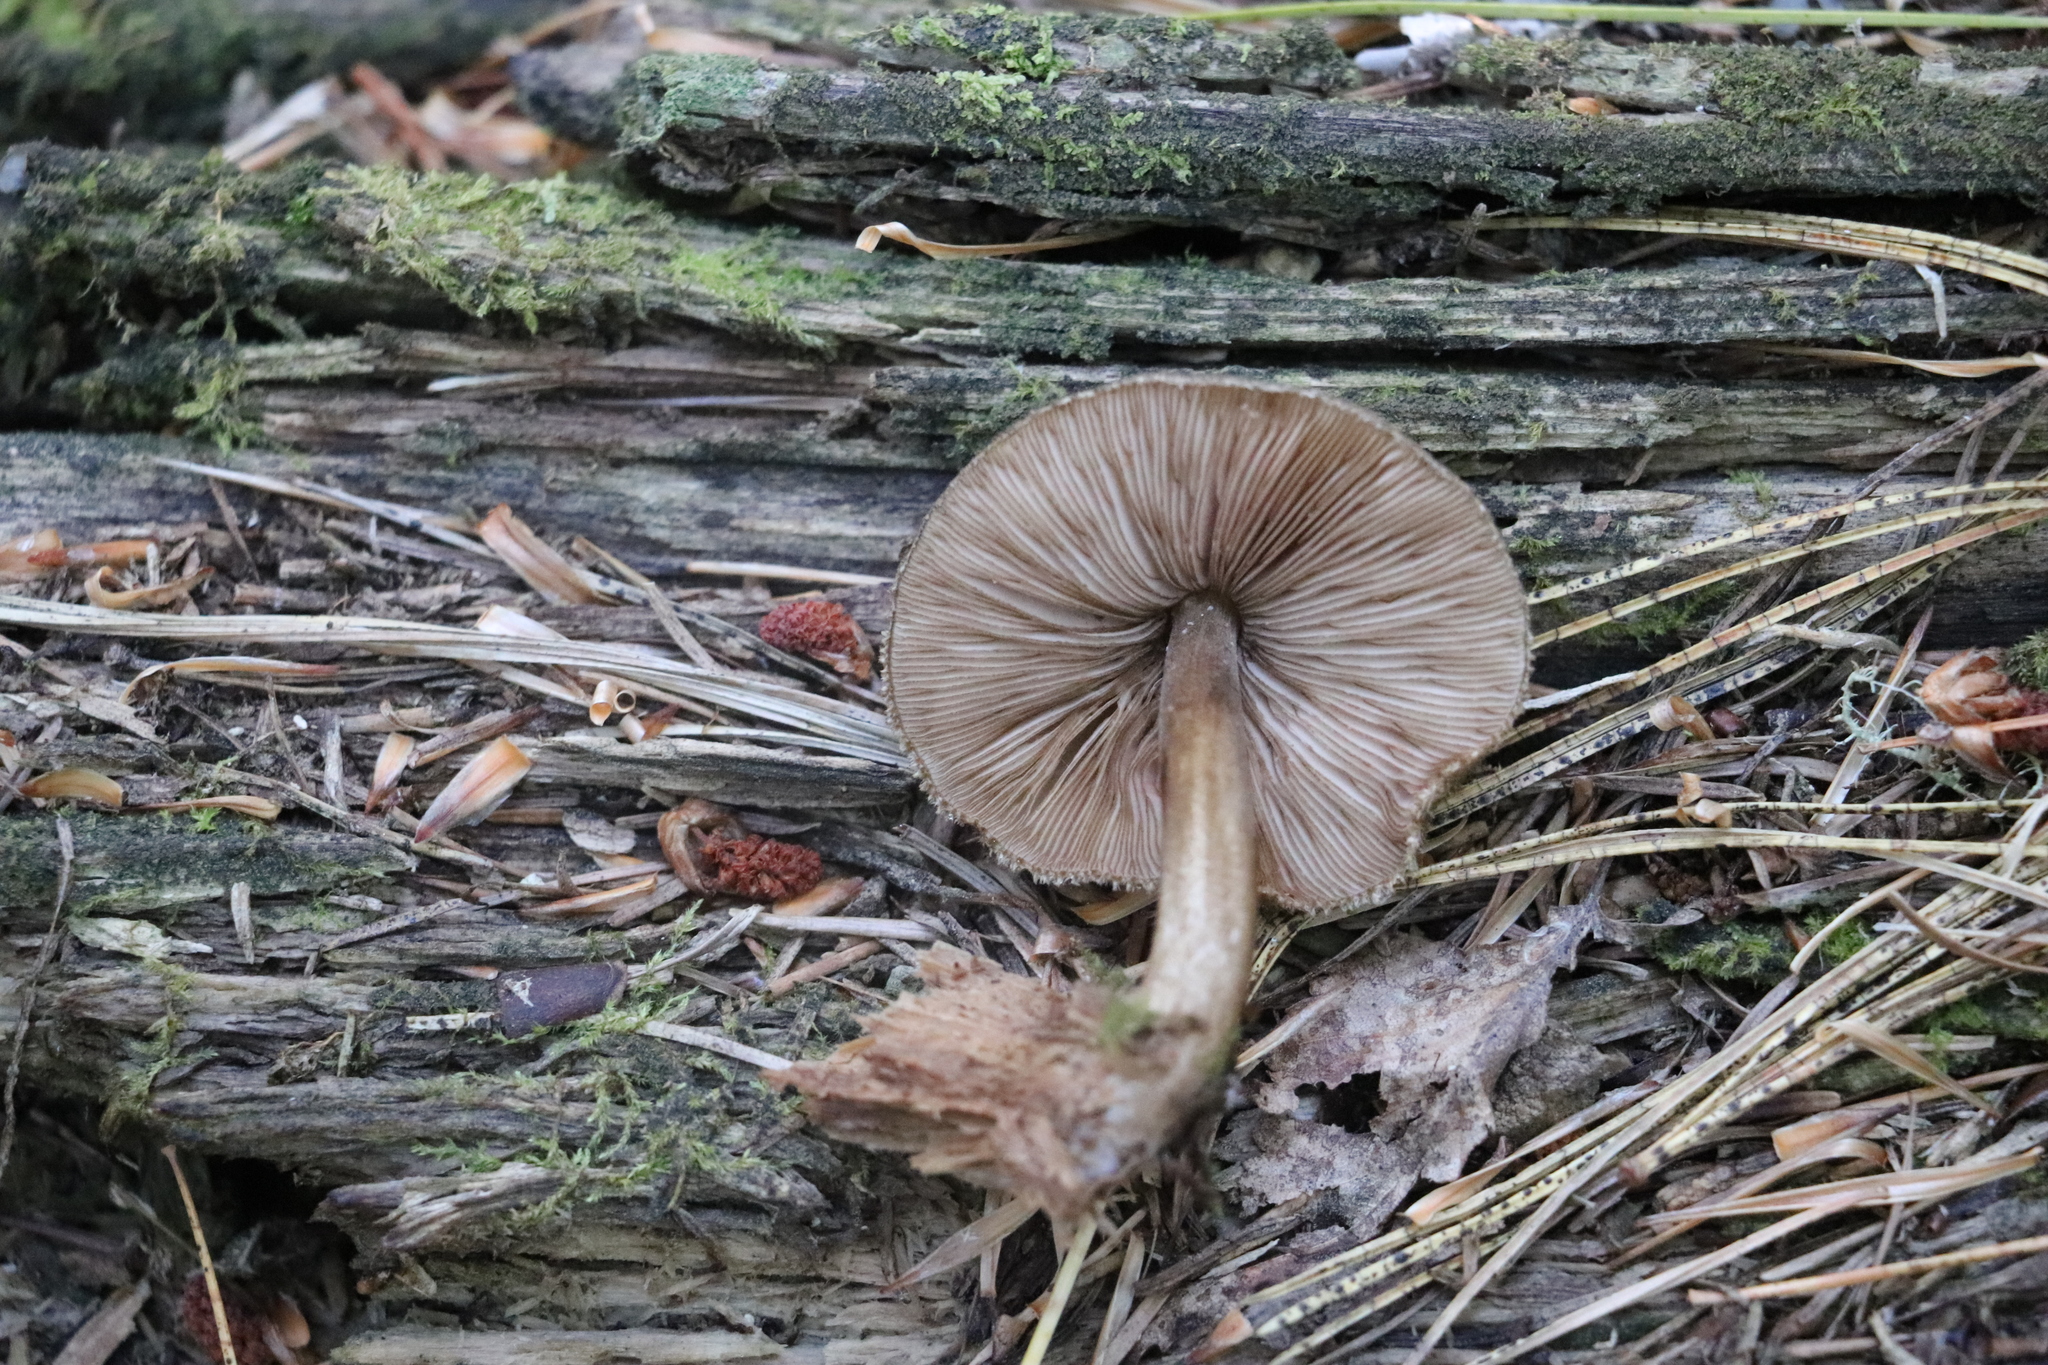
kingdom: Fungi
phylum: Basidiomycota
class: Agaricomycetes
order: Agaricales
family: Pluteaceae
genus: Pluteus
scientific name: Pluteus umbrosus
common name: Velvet shield
